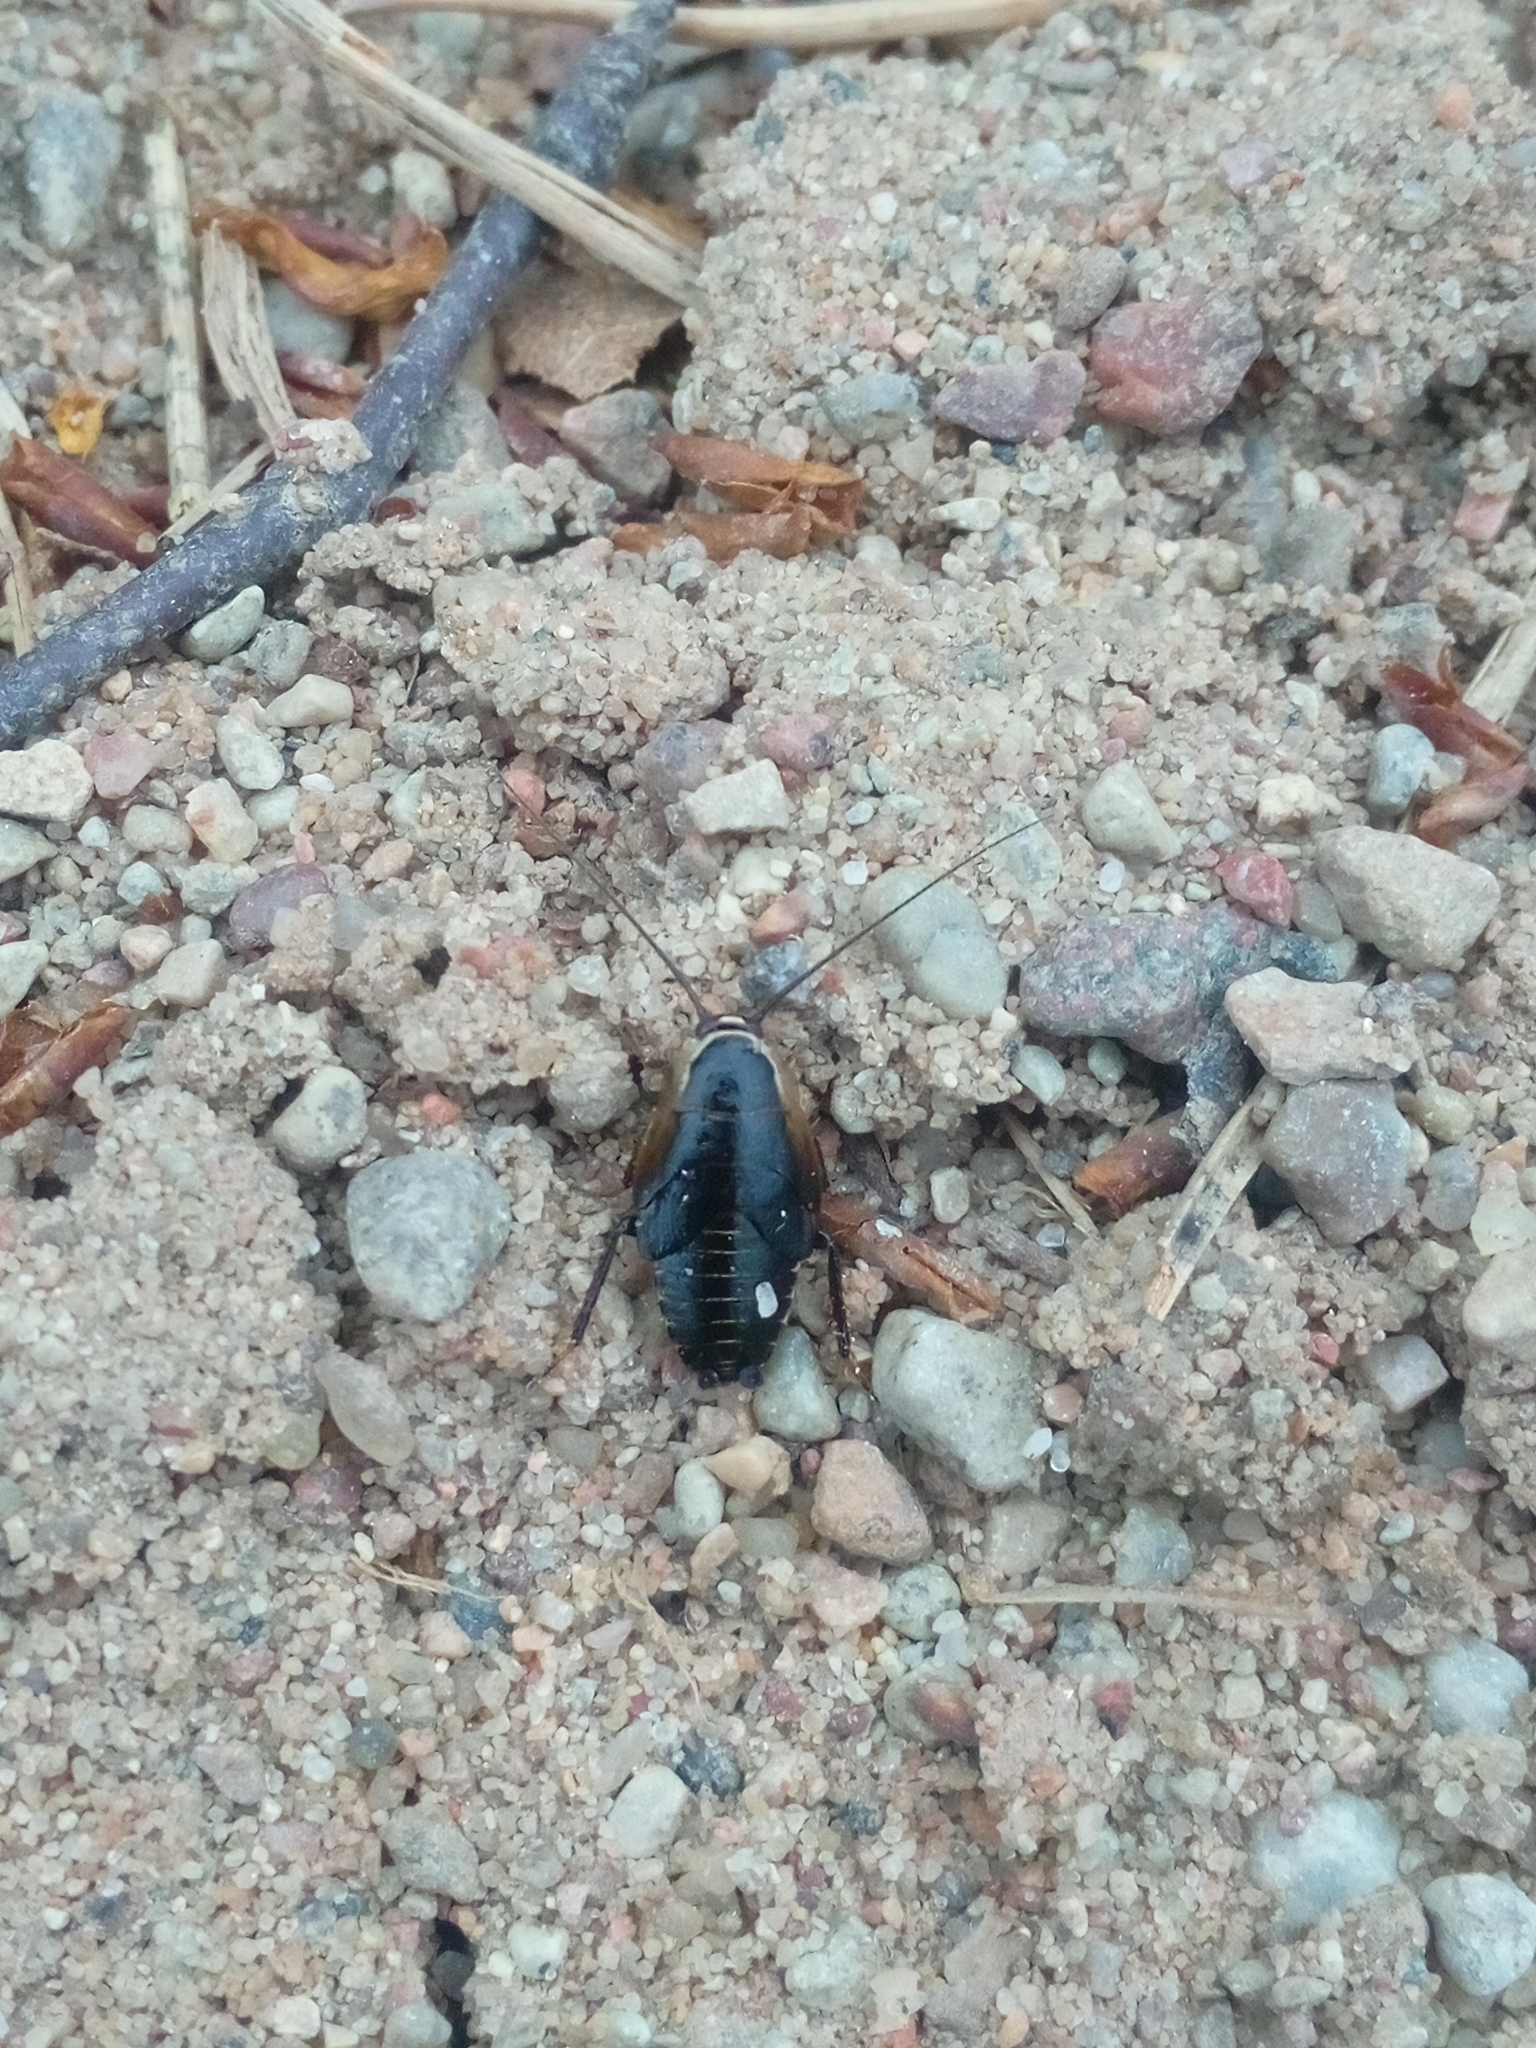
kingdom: Animalia
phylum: Arthropoda
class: Insecta
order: Blattodea
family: Ectobiidae
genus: Ectobius
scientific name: Ectobius sylvestris
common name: Forest cockroach
